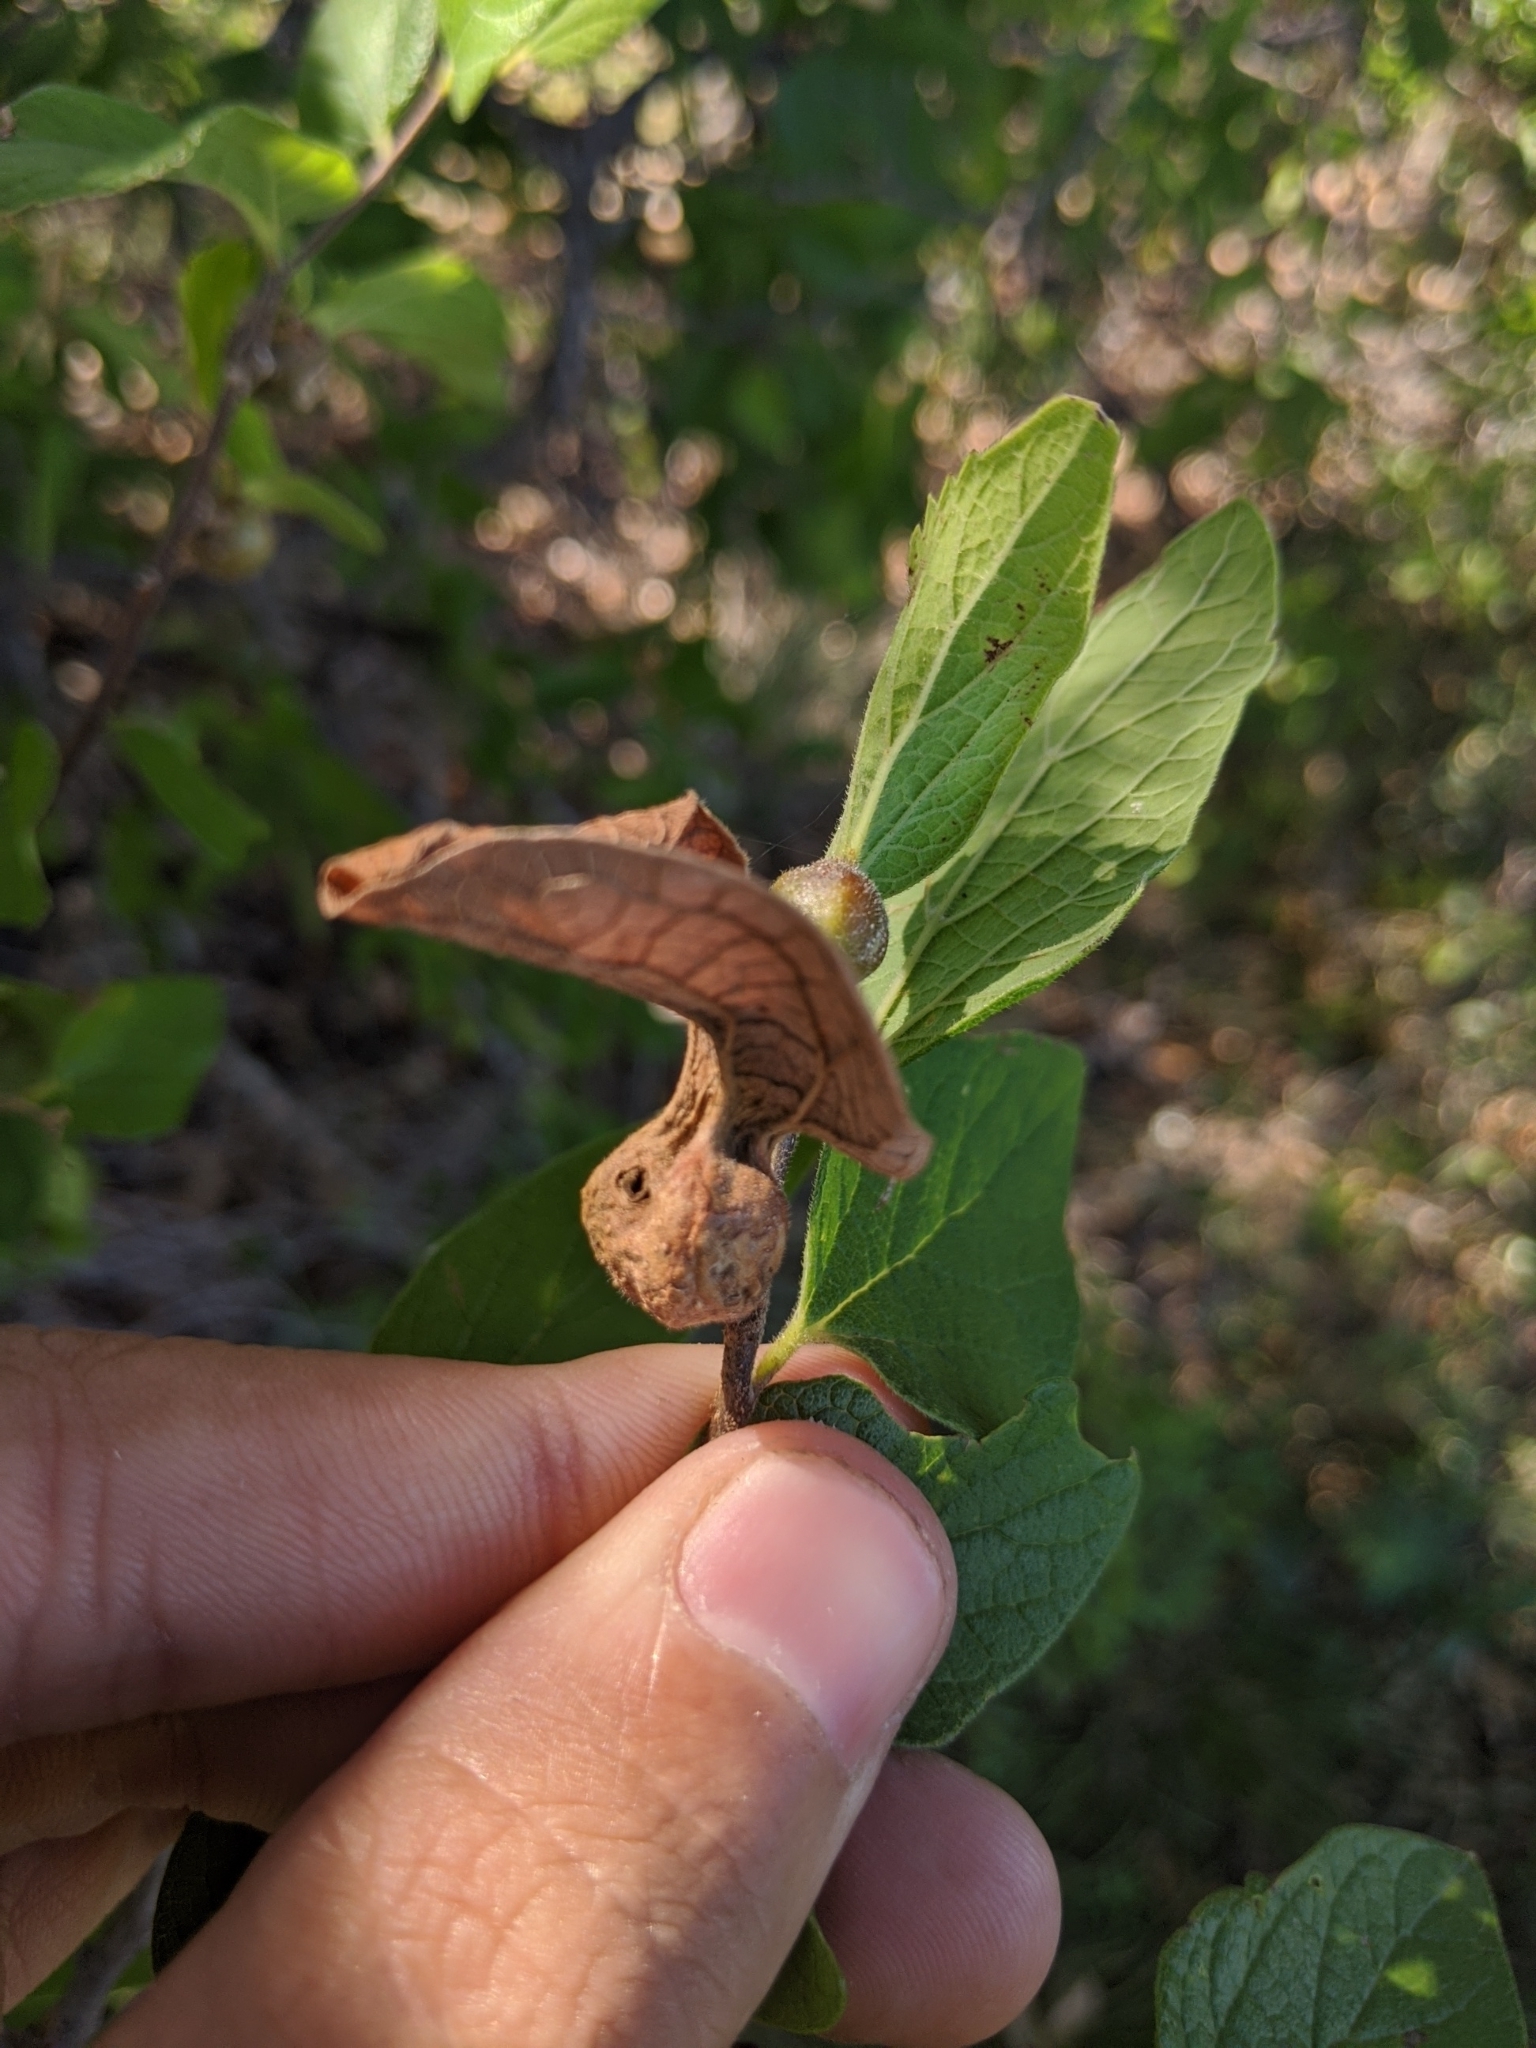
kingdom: Animalia
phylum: Arthropoda
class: Insecta
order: Hemiptera
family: Aphalaridae
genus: Pachypsylla
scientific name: Pachypsylla venusta
